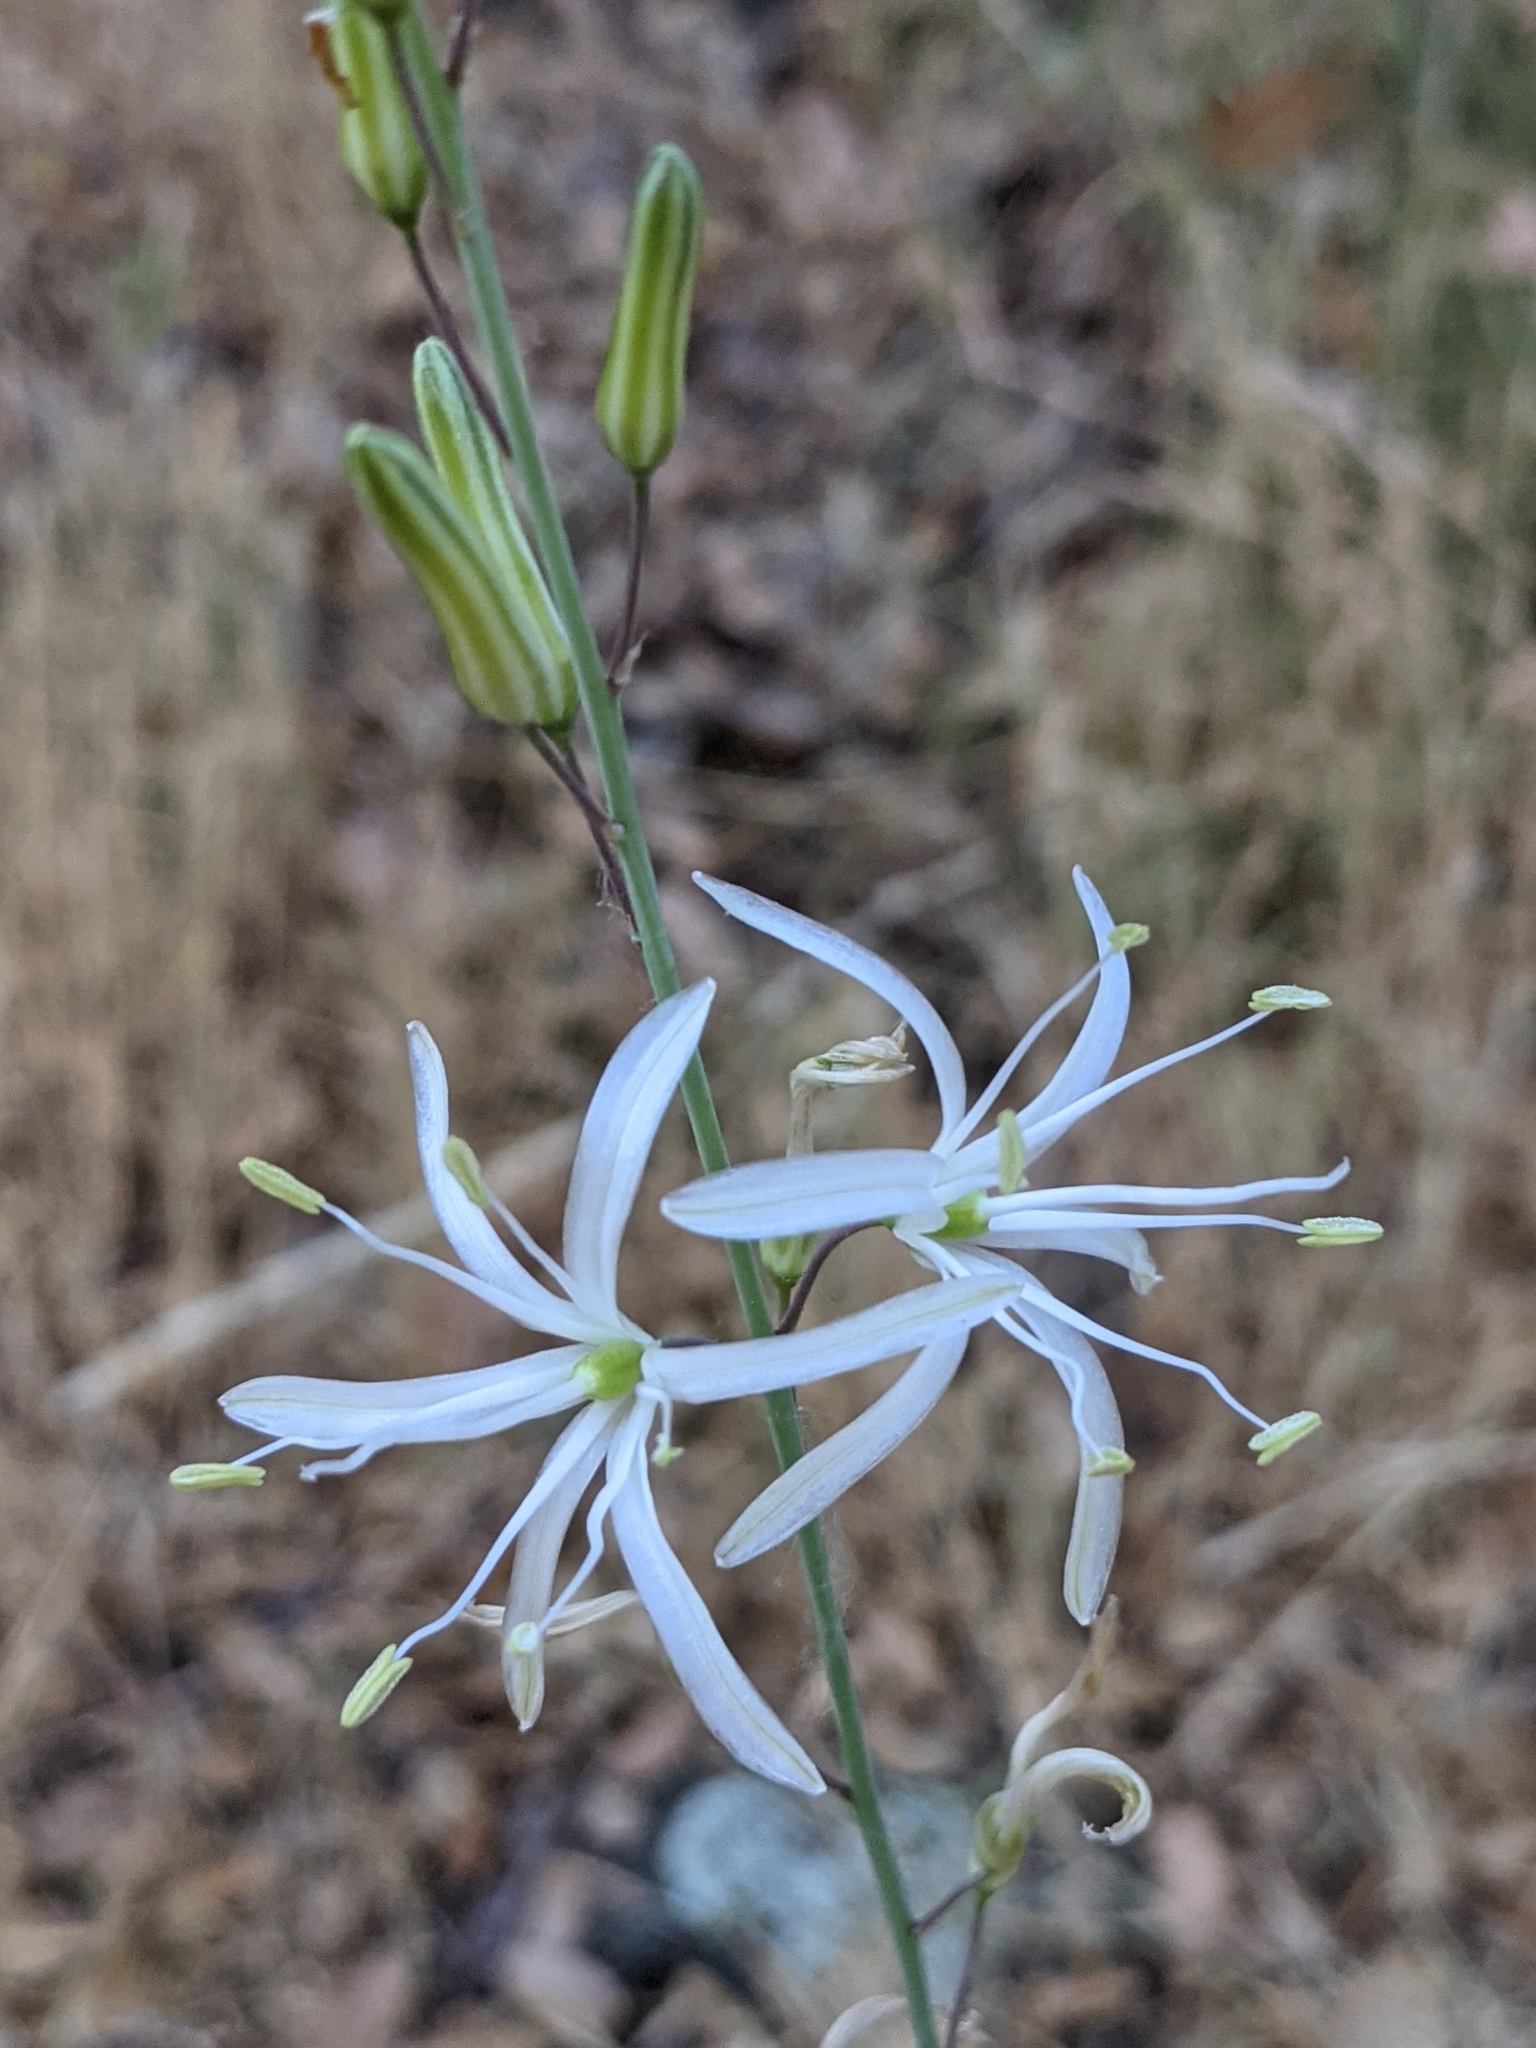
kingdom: Plantae
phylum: Tracheophyta
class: Liliopsida
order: Asparagales
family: Asparagaceae
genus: Chlorogalum
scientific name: Chlorogalum pomeridianum
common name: Amole
